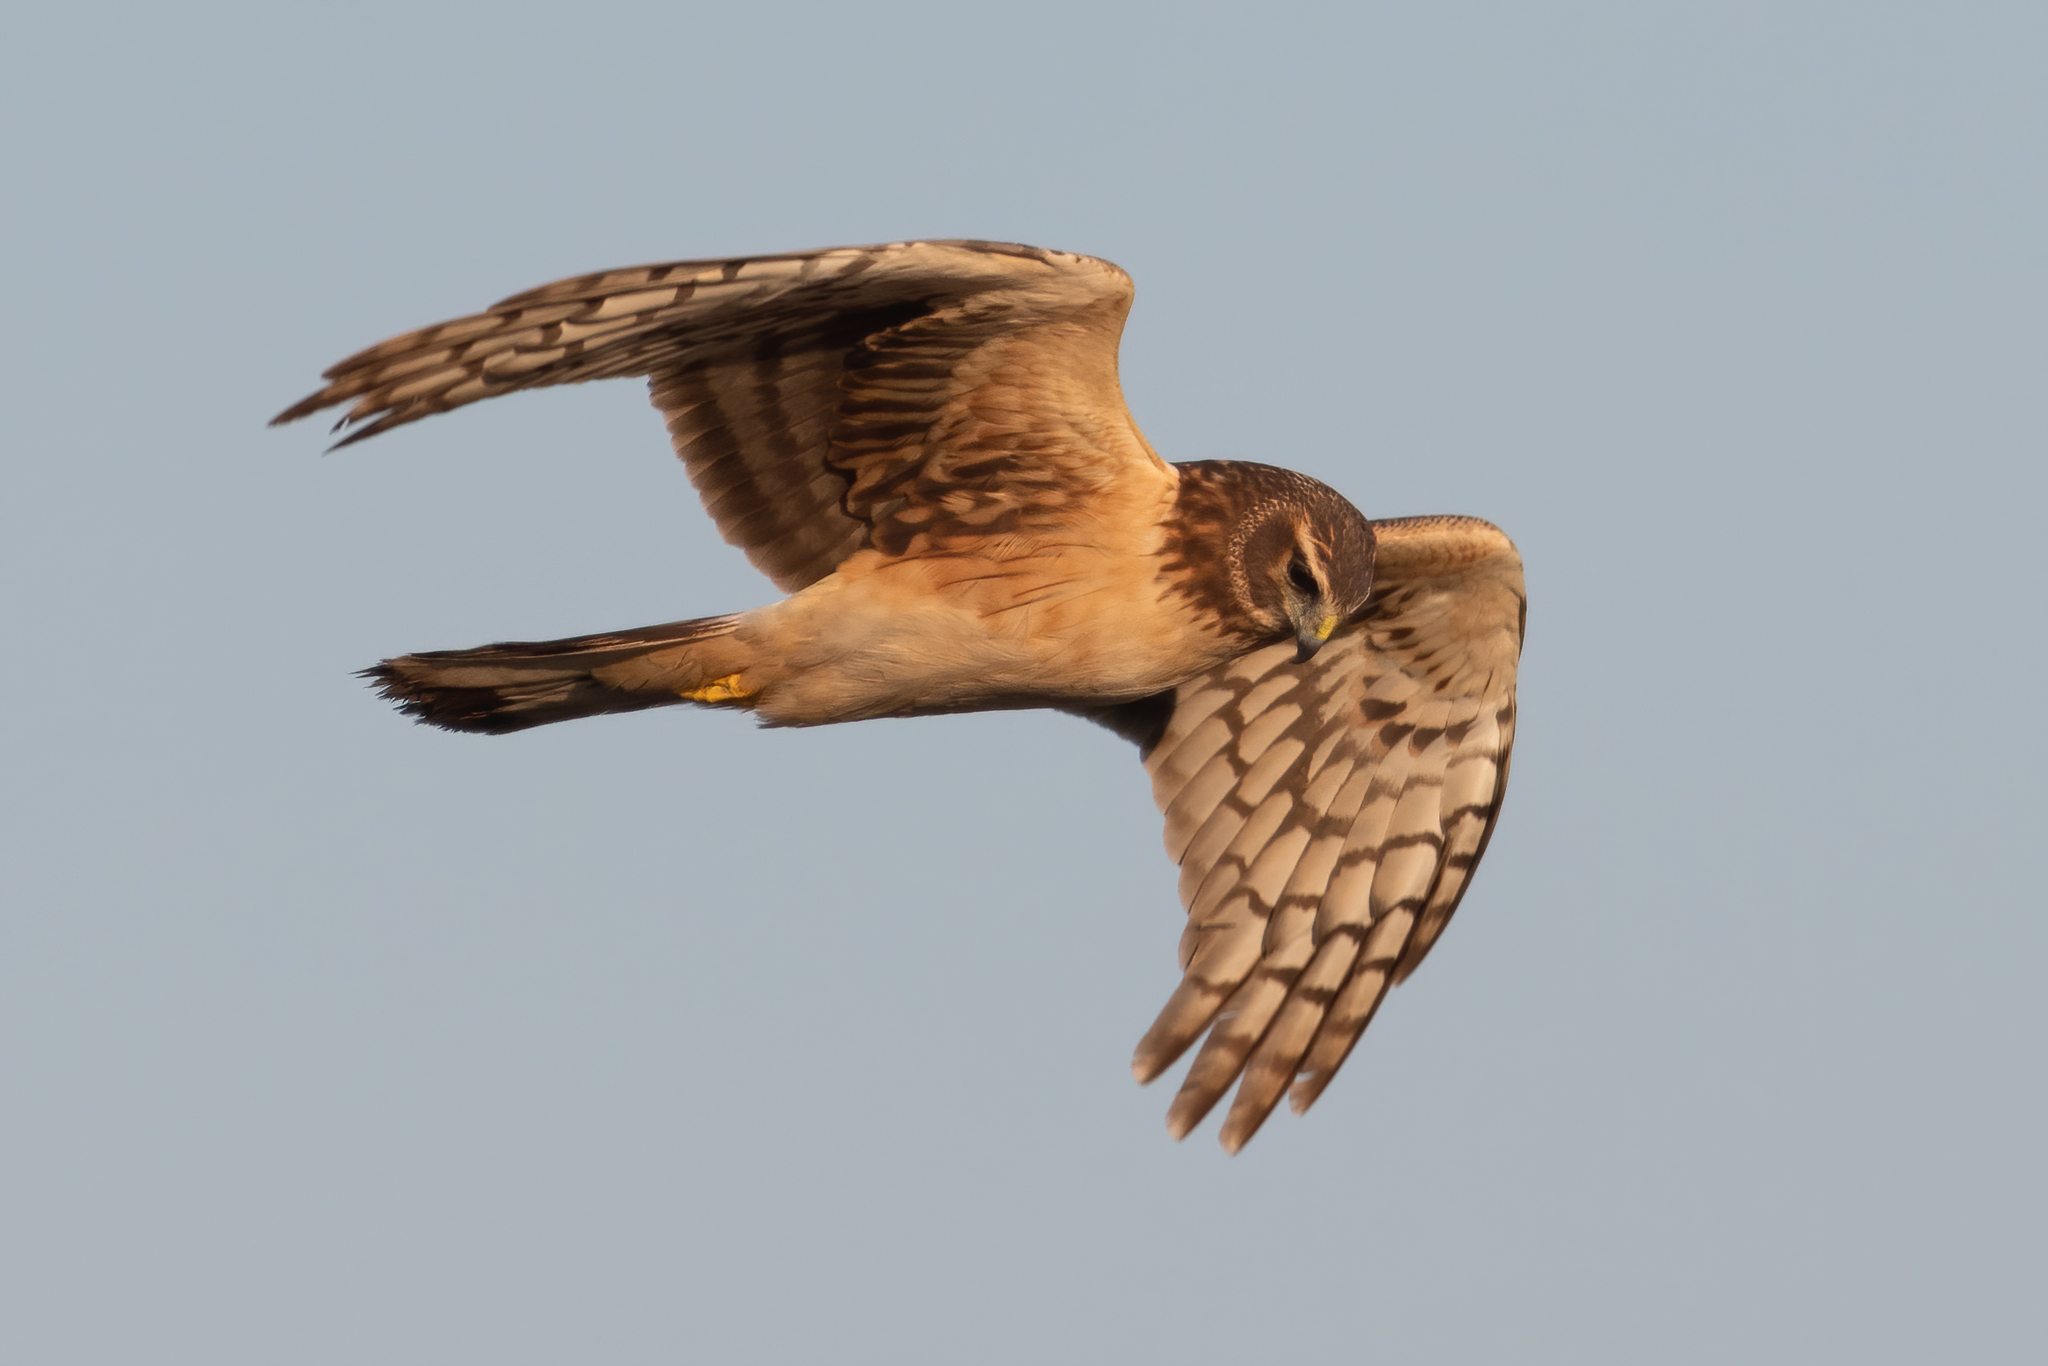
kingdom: Animalia
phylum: Chordata
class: Aves
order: Accipitriformes
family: Accipitridae
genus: Circus
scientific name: Circus cyaneus
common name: Hen harrier
